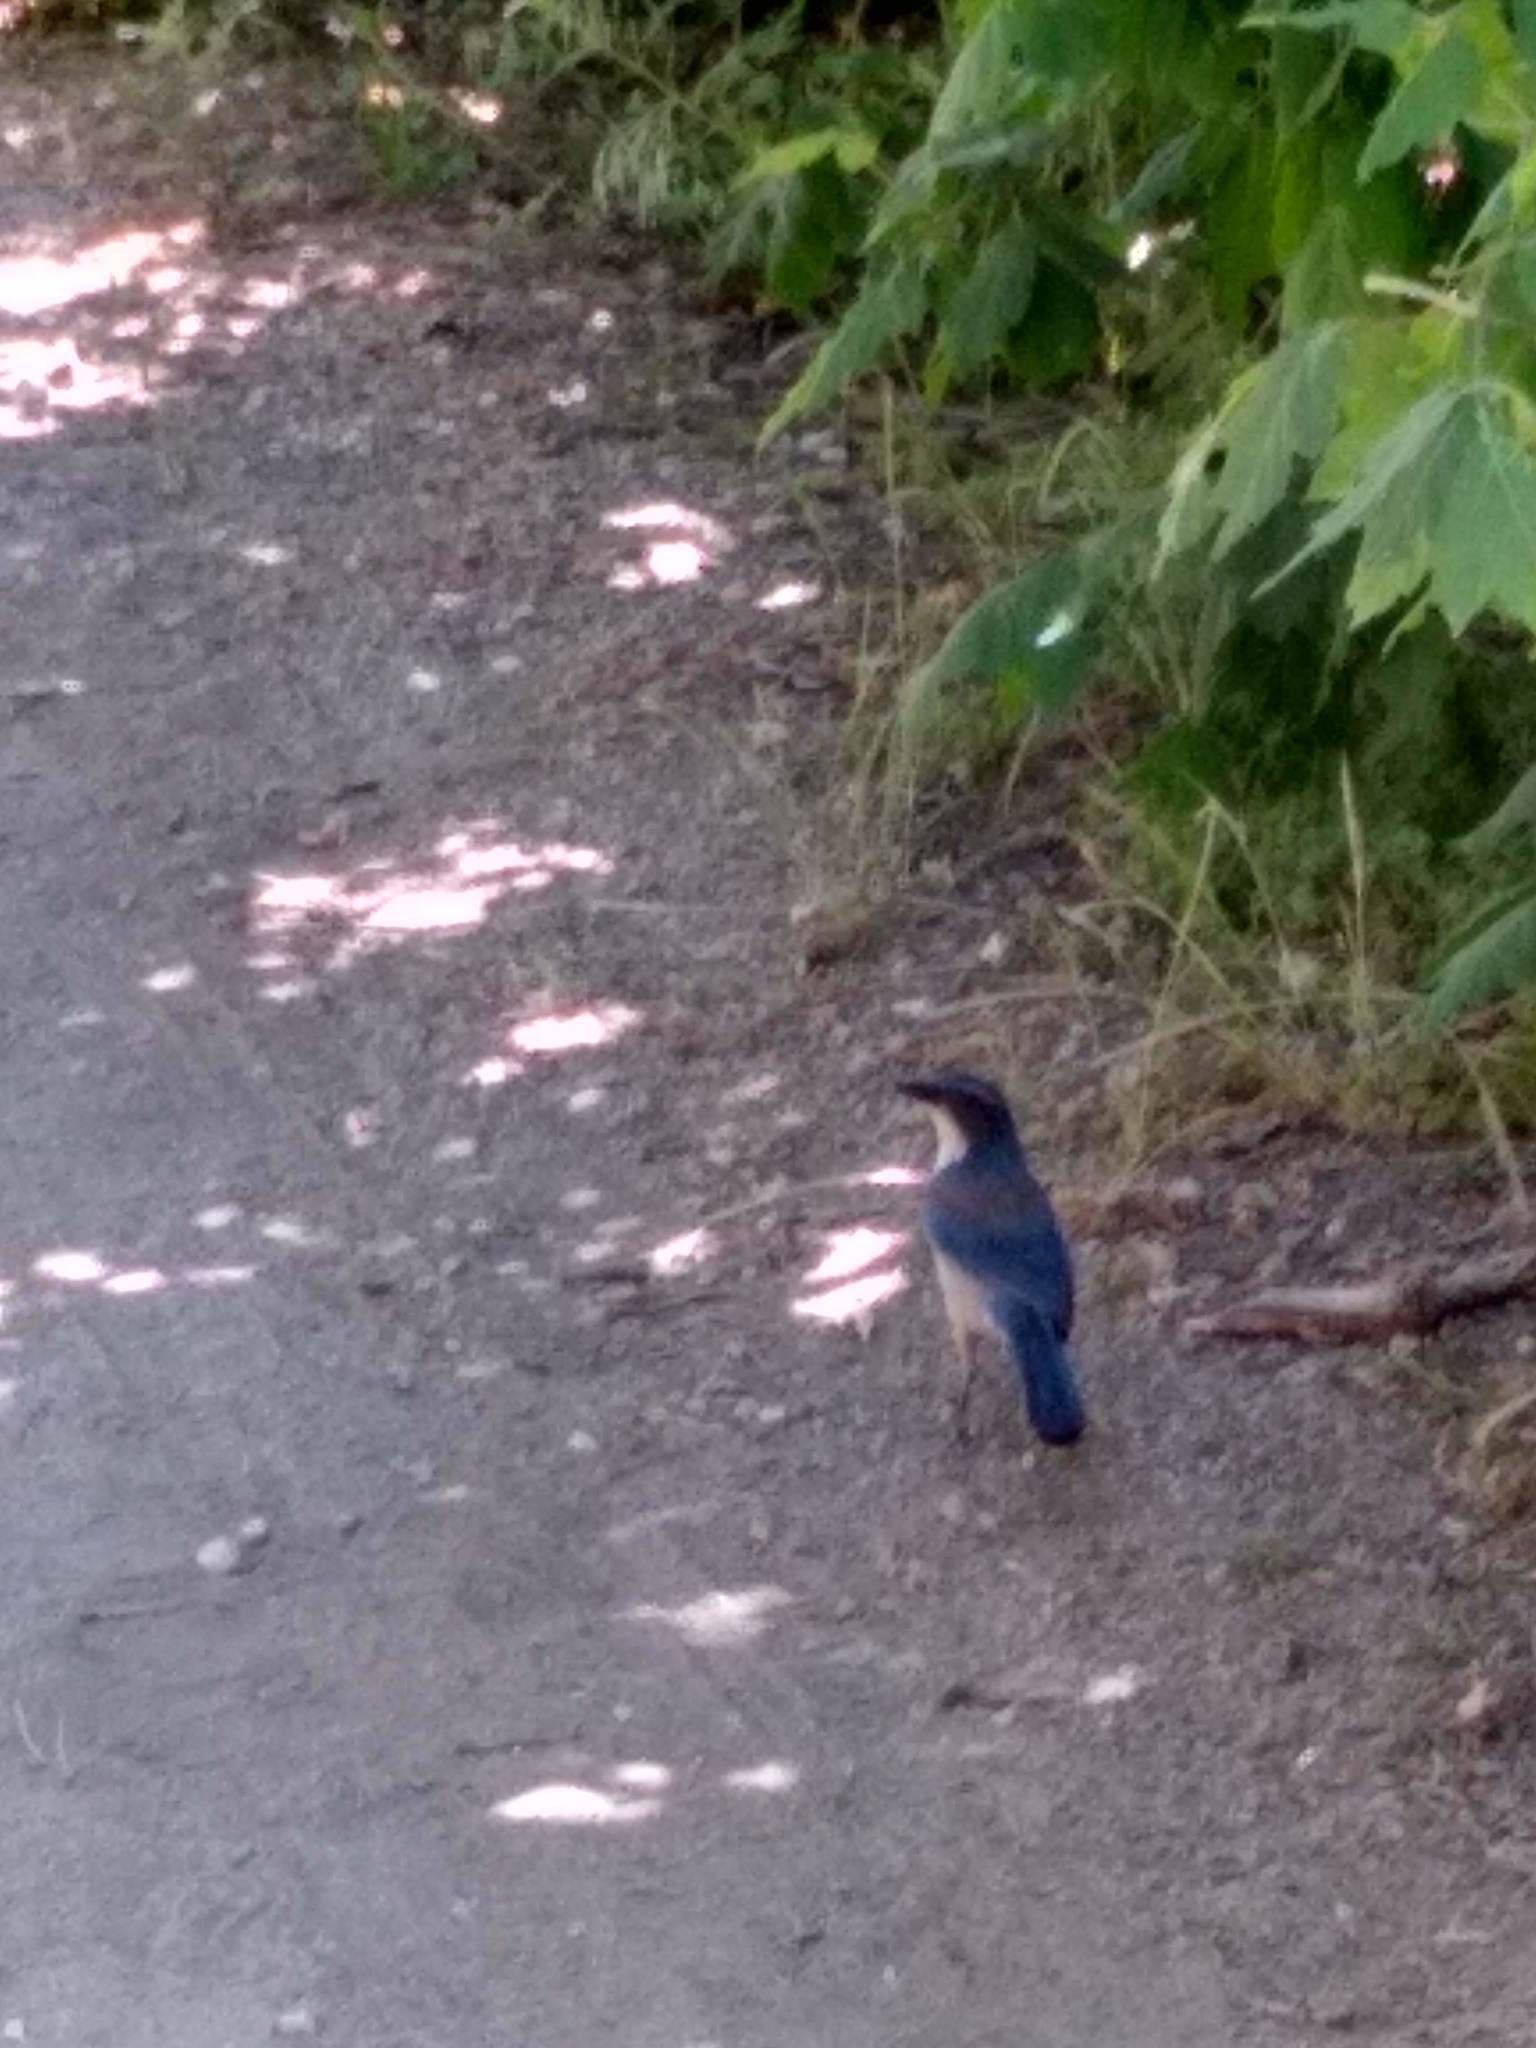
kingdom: Animalia
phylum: Chordata
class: Aves
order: Passeriformes
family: Corvidae
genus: Aphelocoma
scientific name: Aphelocoma californica
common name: California scrub-jay
